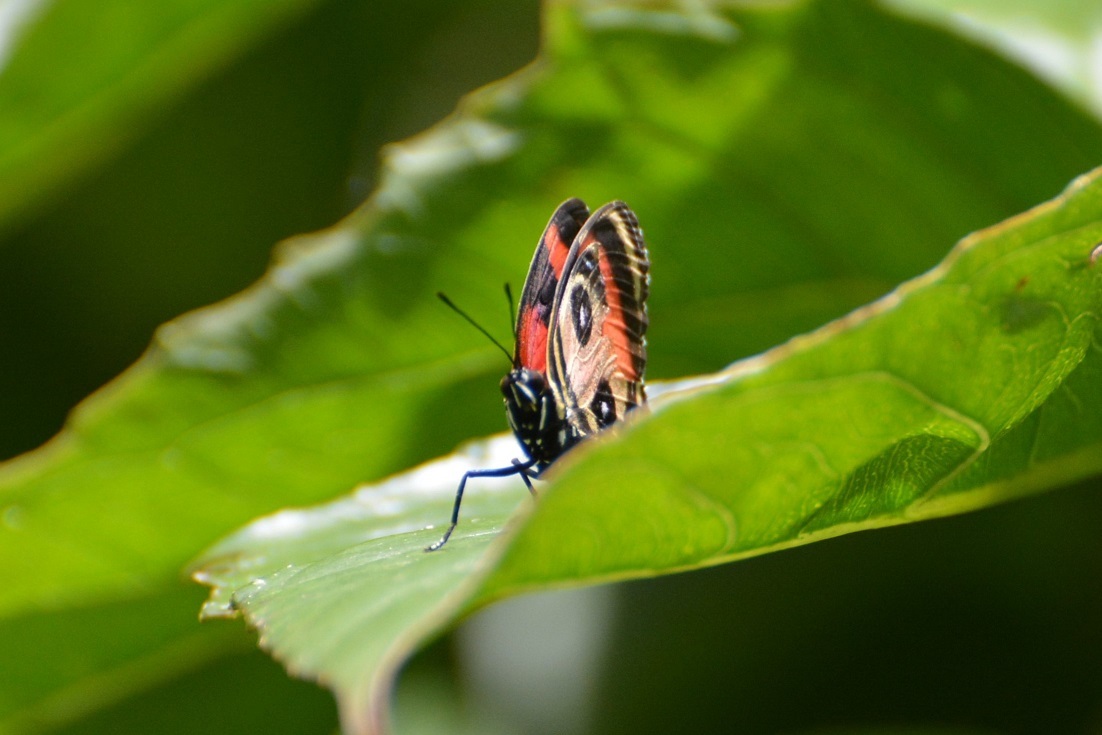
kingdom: Animalia
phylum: Arthropoda
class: Insecta
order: Lepidoptera
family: Nymphalidae
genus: Catagramma
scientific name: Catagramma Callicore pitheas
